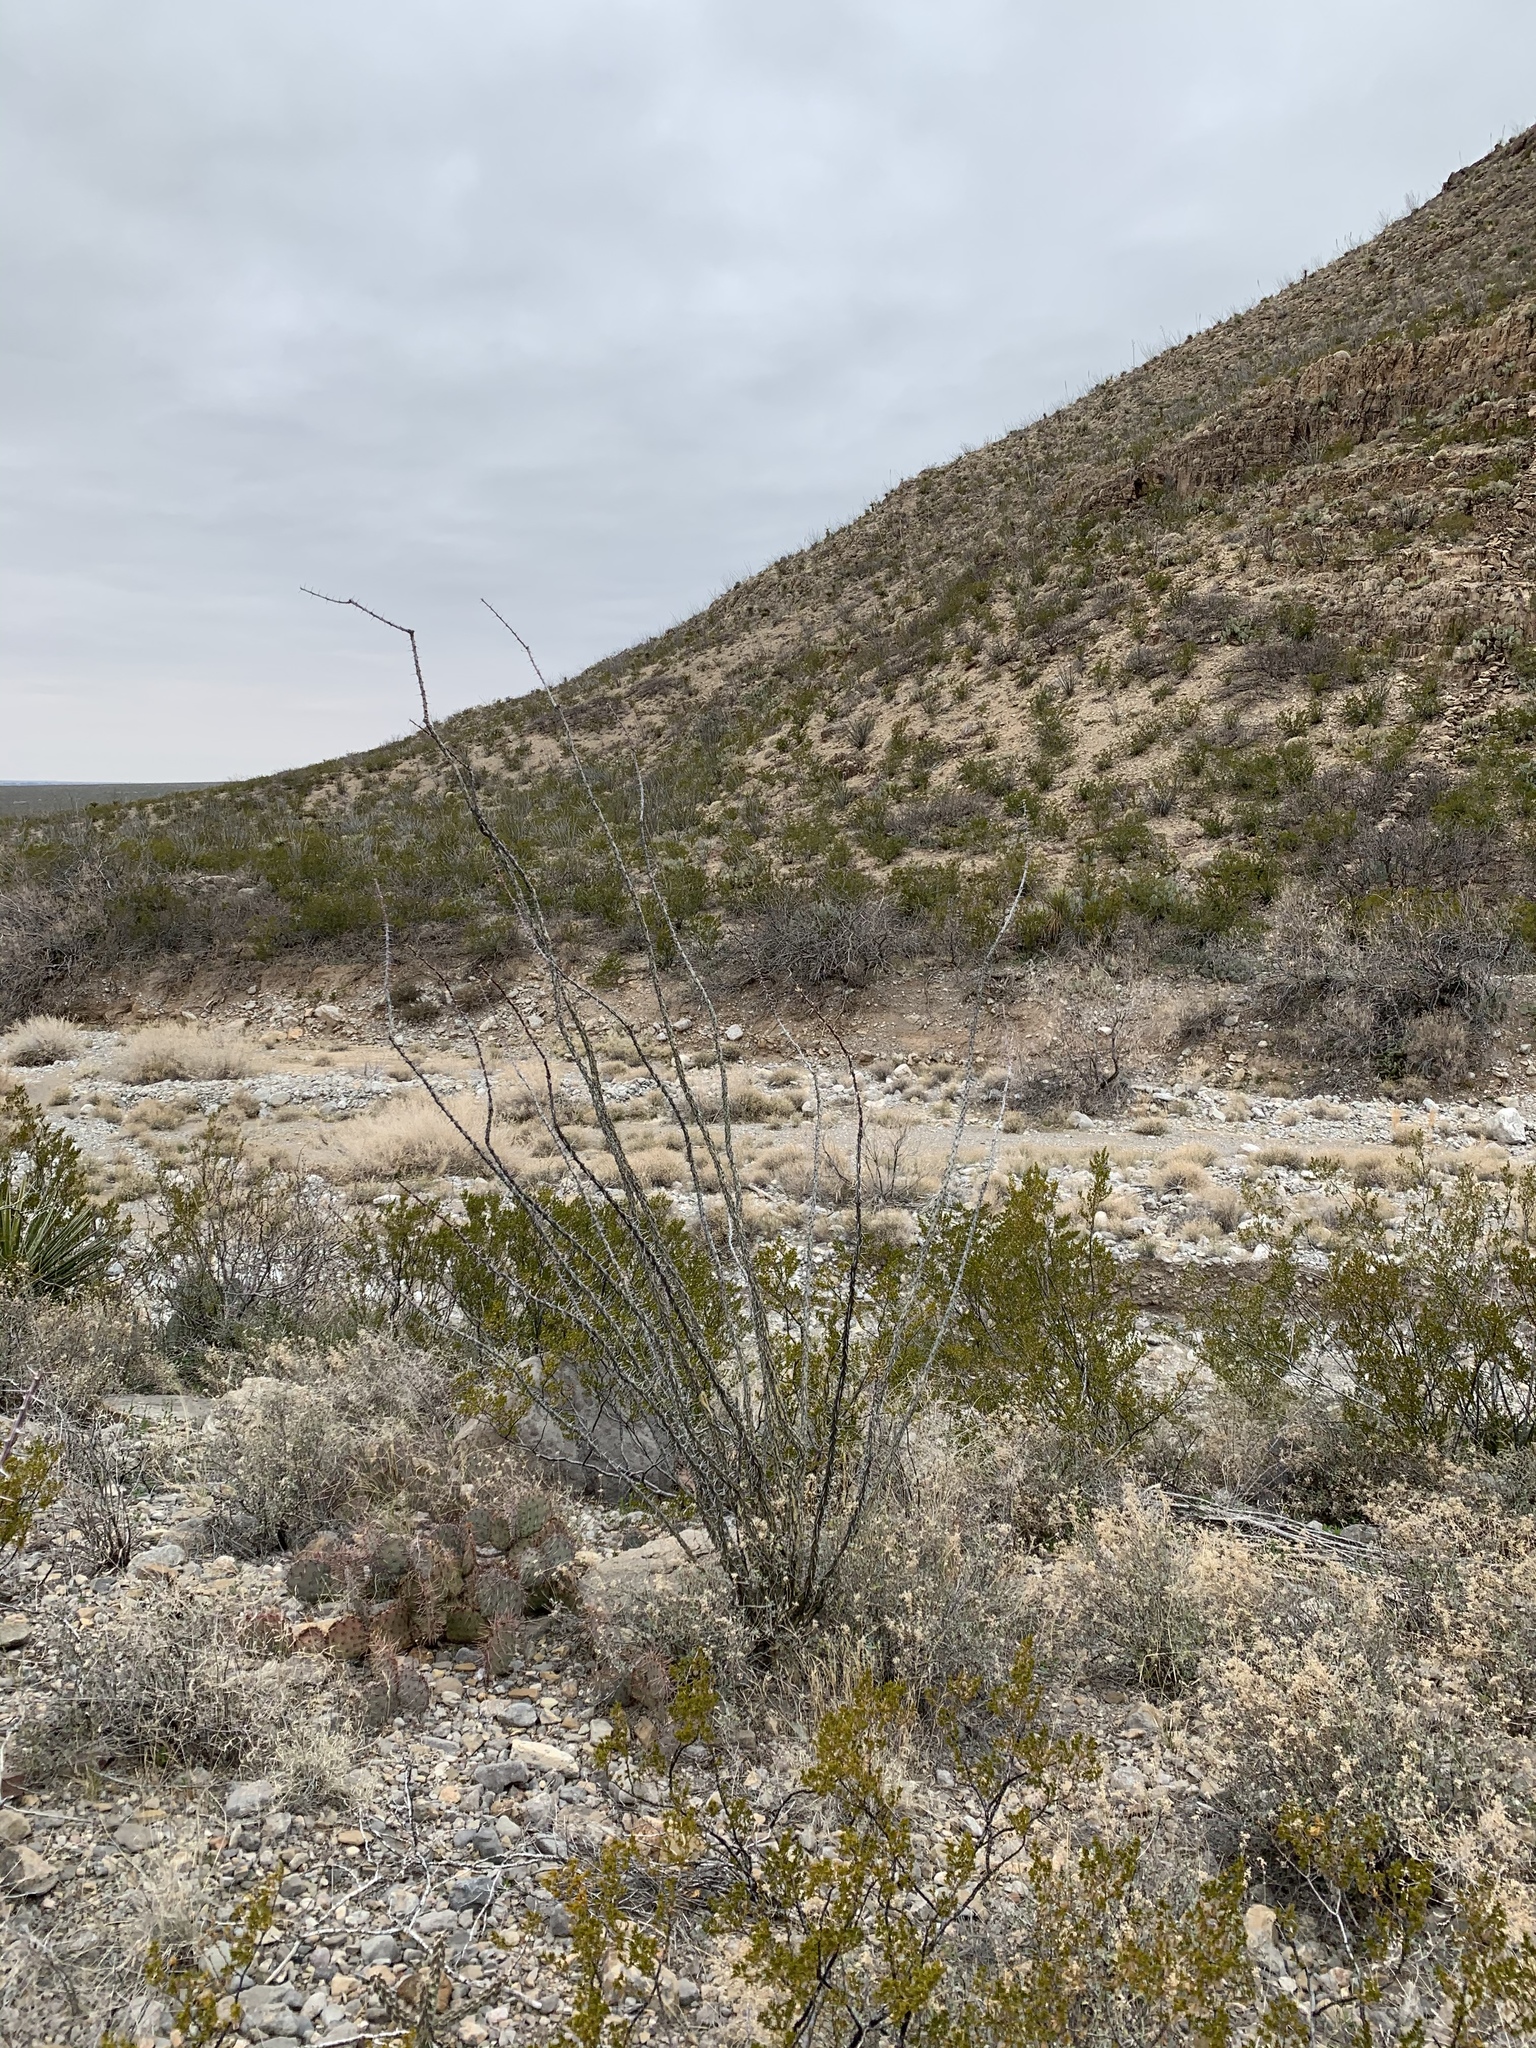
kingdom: Plantae
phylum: Tracheophyta
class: Magnoliopsida
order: Ericales
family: Fouquieriaceae
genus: Fouquieria
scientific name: Fouquieria splendens
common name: Vine-cactus
